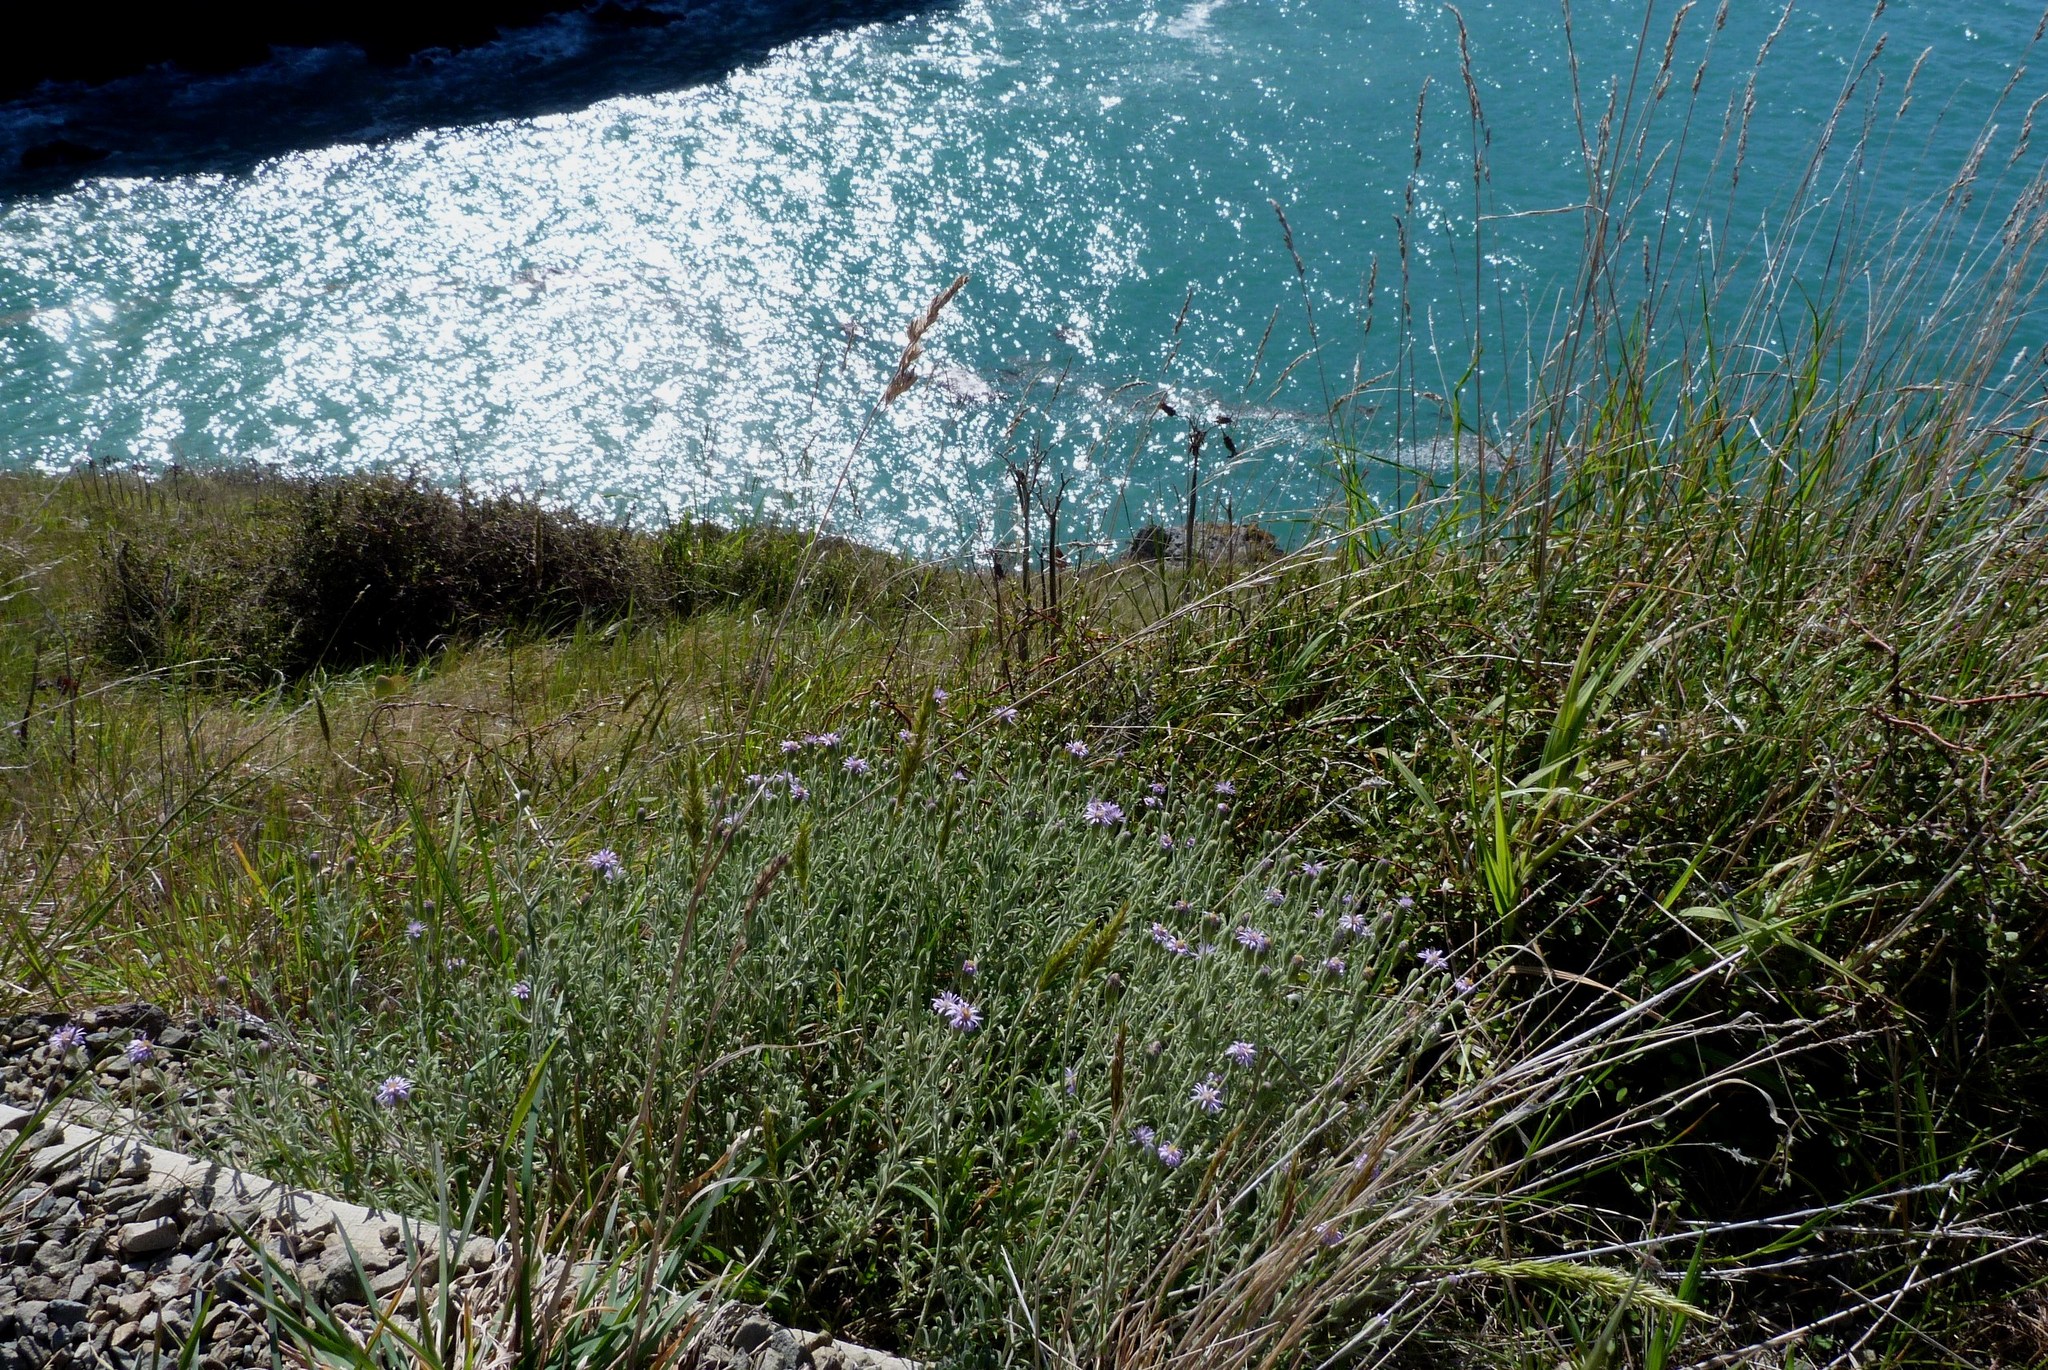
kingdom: Plantae
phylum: Tracheophyta
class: Magnoliopsida
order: Asterales
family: Asteraceae
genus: Vittadinia
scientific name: Vittadinia gracilis
